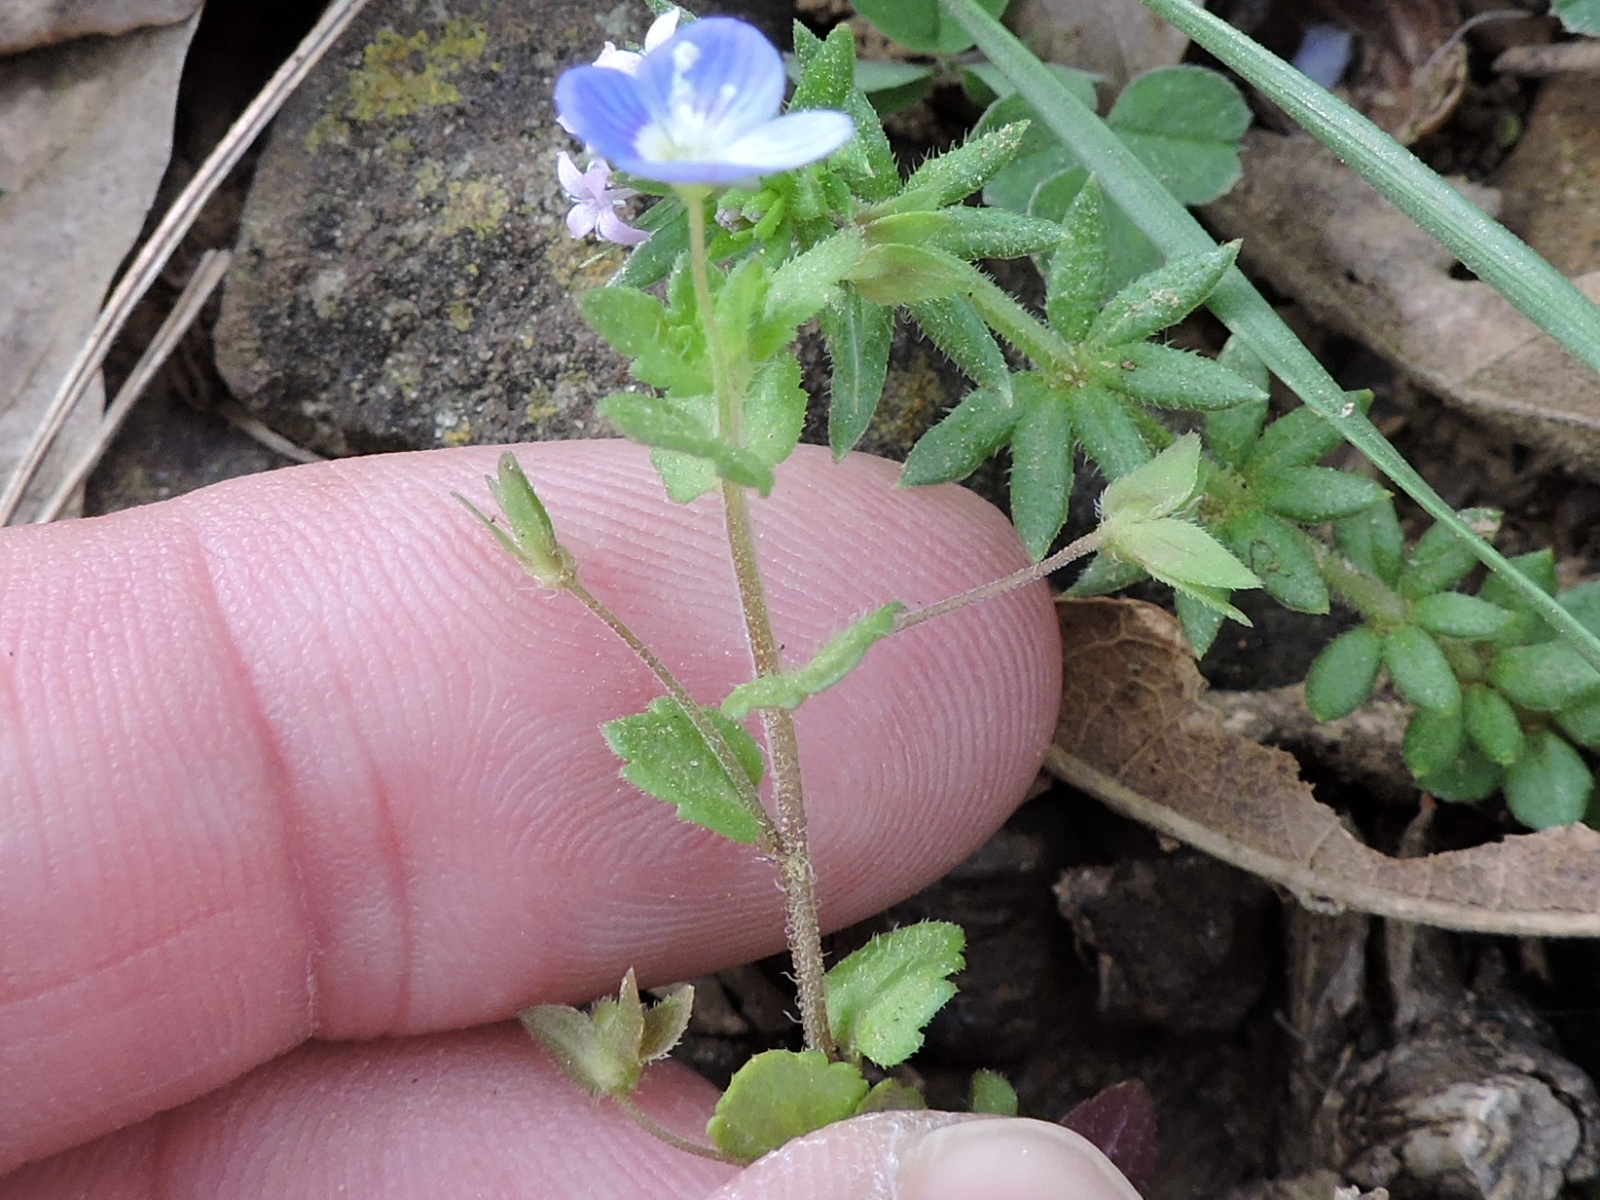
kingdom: Plantae
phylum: Tracheophyta
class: Magnoliopsida
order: Lamiales
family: Plantaginaceae
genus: Veronica
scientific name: Veronica persica
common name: Common field-speedwell
